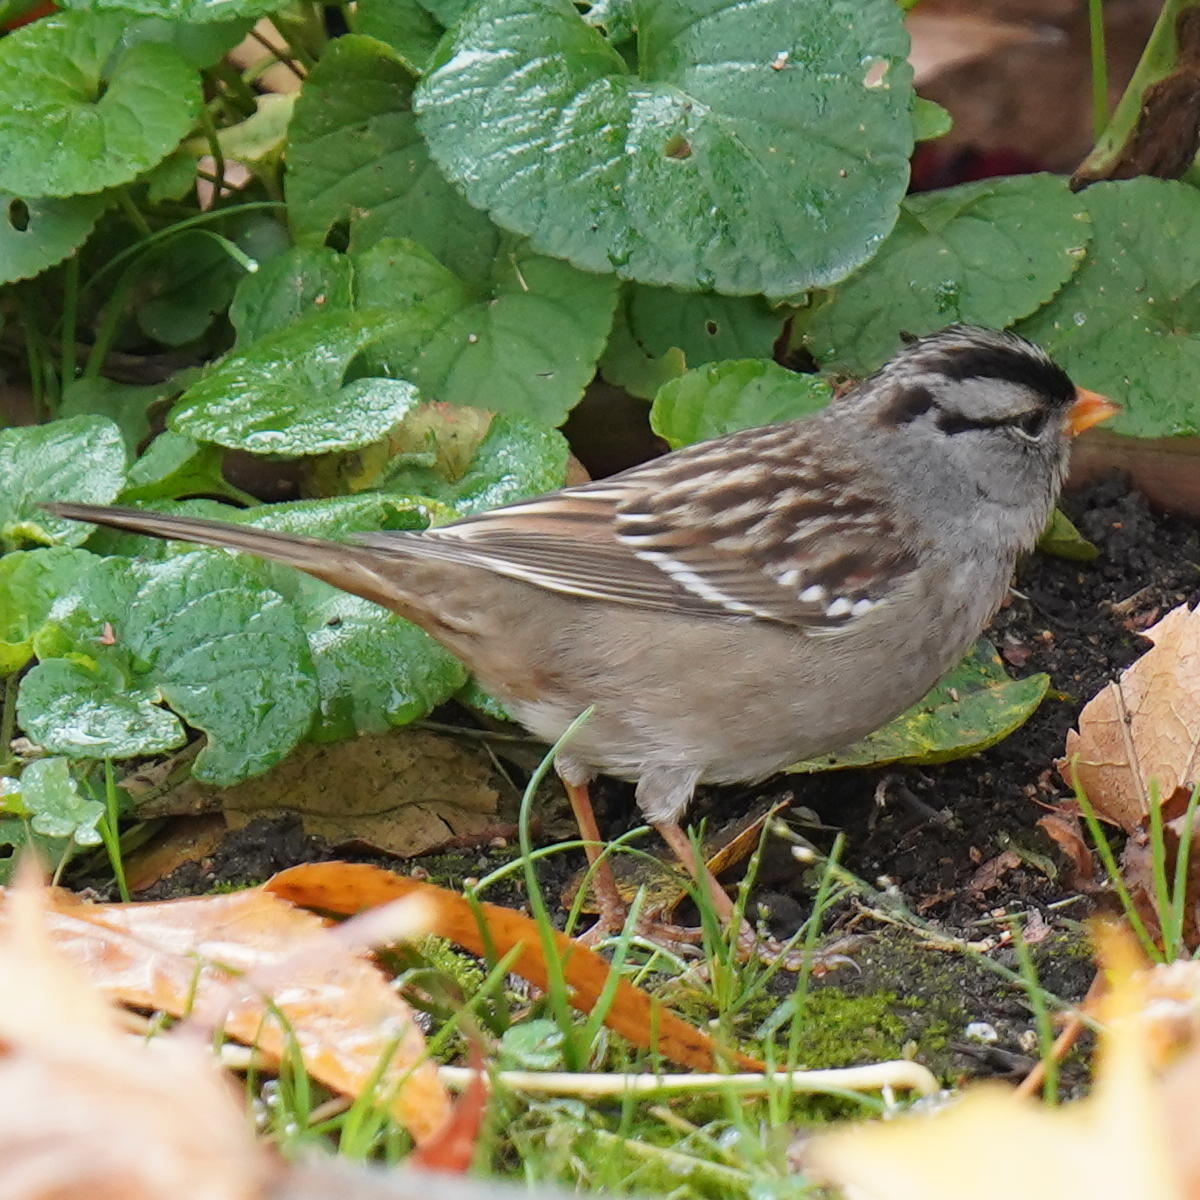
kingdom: Animalia
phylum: Chordata
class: Aves
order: Passeriformes
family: Passerellidae
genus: Zonotrichia
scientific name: Zonotrichia leucophrys
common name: White-crowned sparrow
